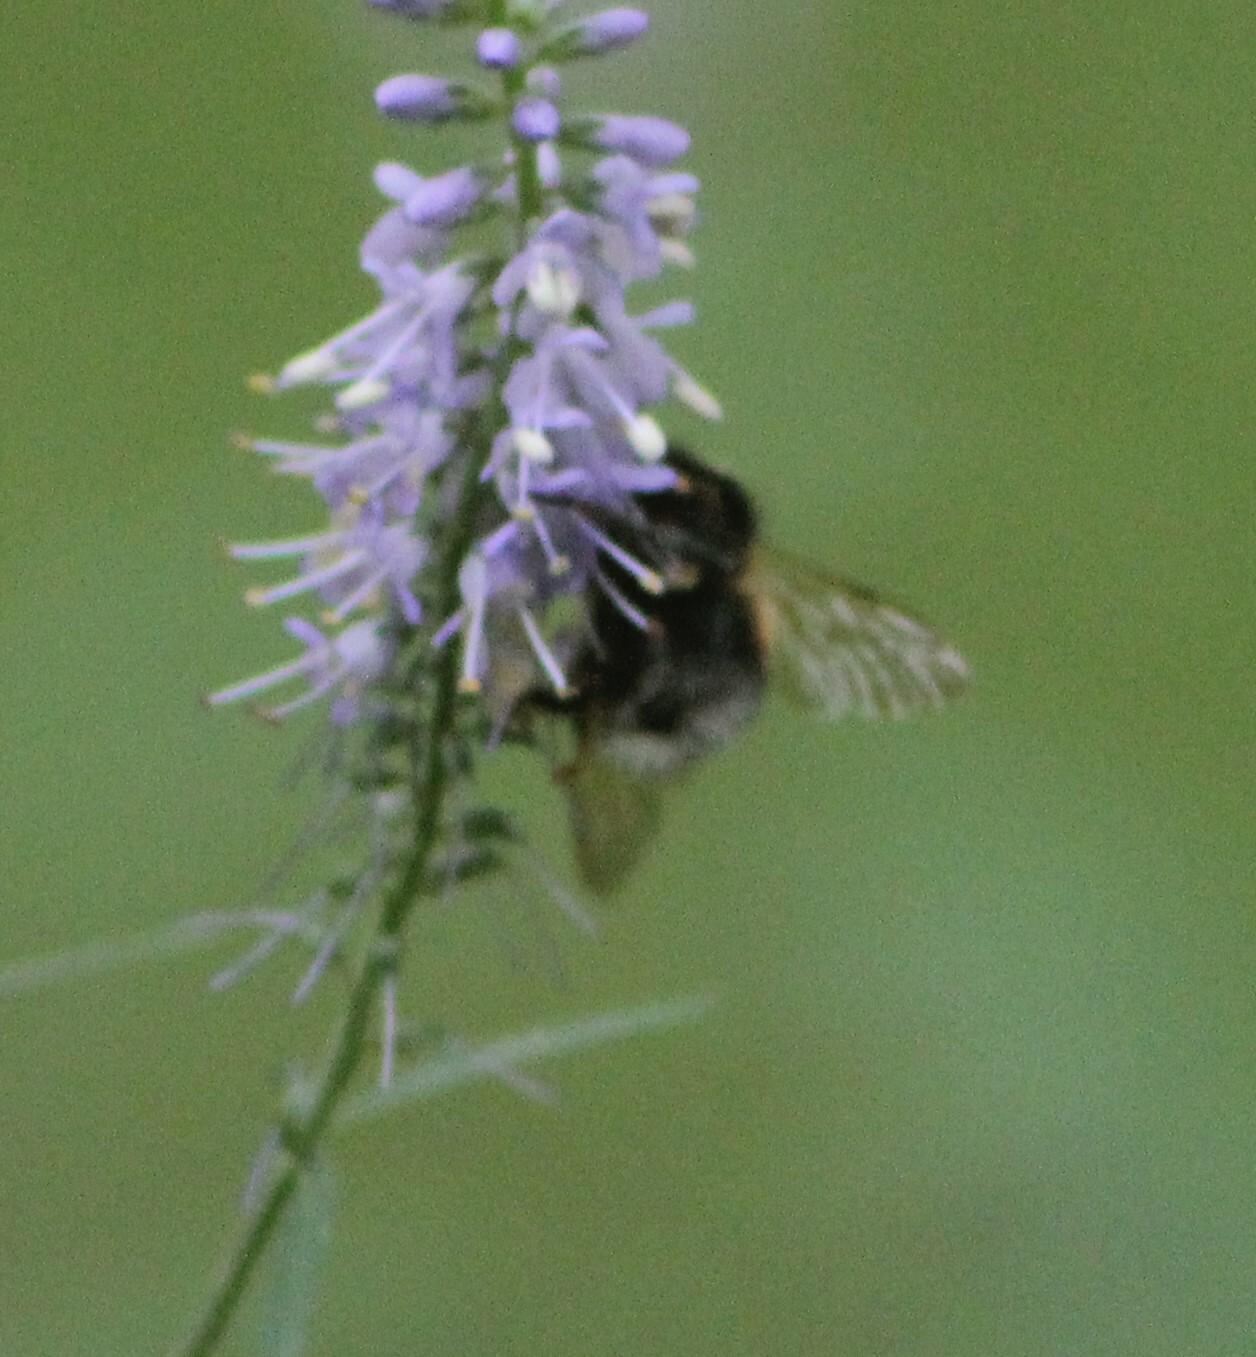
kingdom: Animalia
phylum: Arthropoda
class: Insecta
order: Hymenoptera
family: Apidae
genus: Bombus
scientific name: Bombus hypnorum
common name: New garden bumblebee
